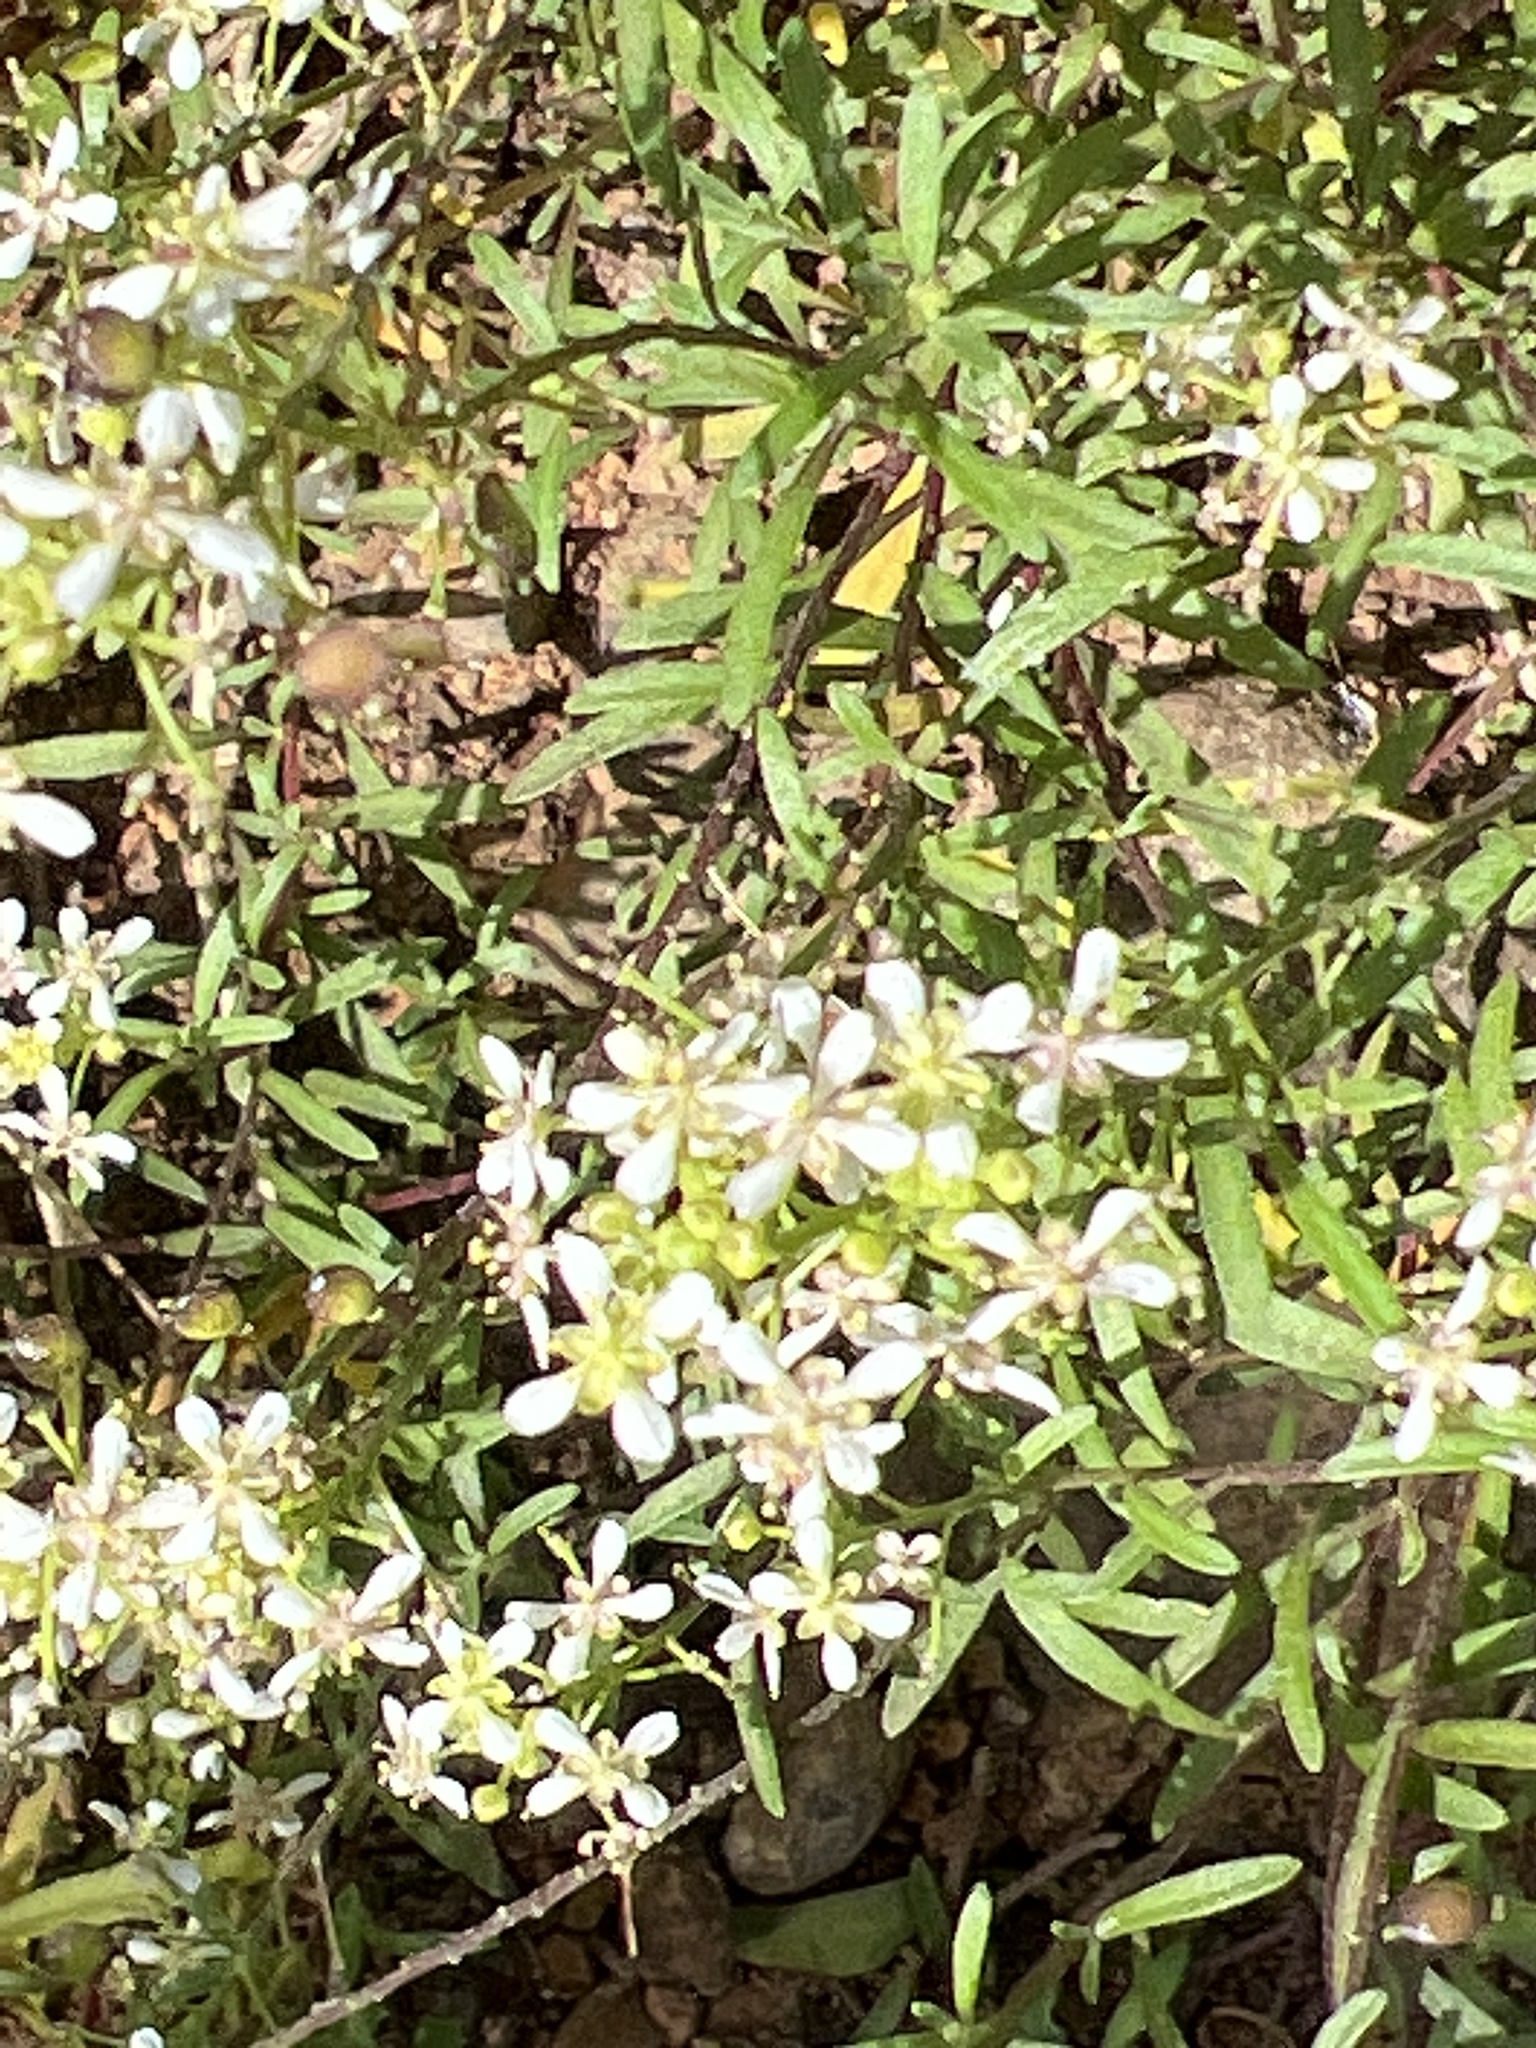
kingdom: Plantae
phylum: Tracheophyta
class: Magnoliopsida
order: Brassicales
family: Brassicaceae
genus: Lobularia
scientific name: Lobularia canariensis
